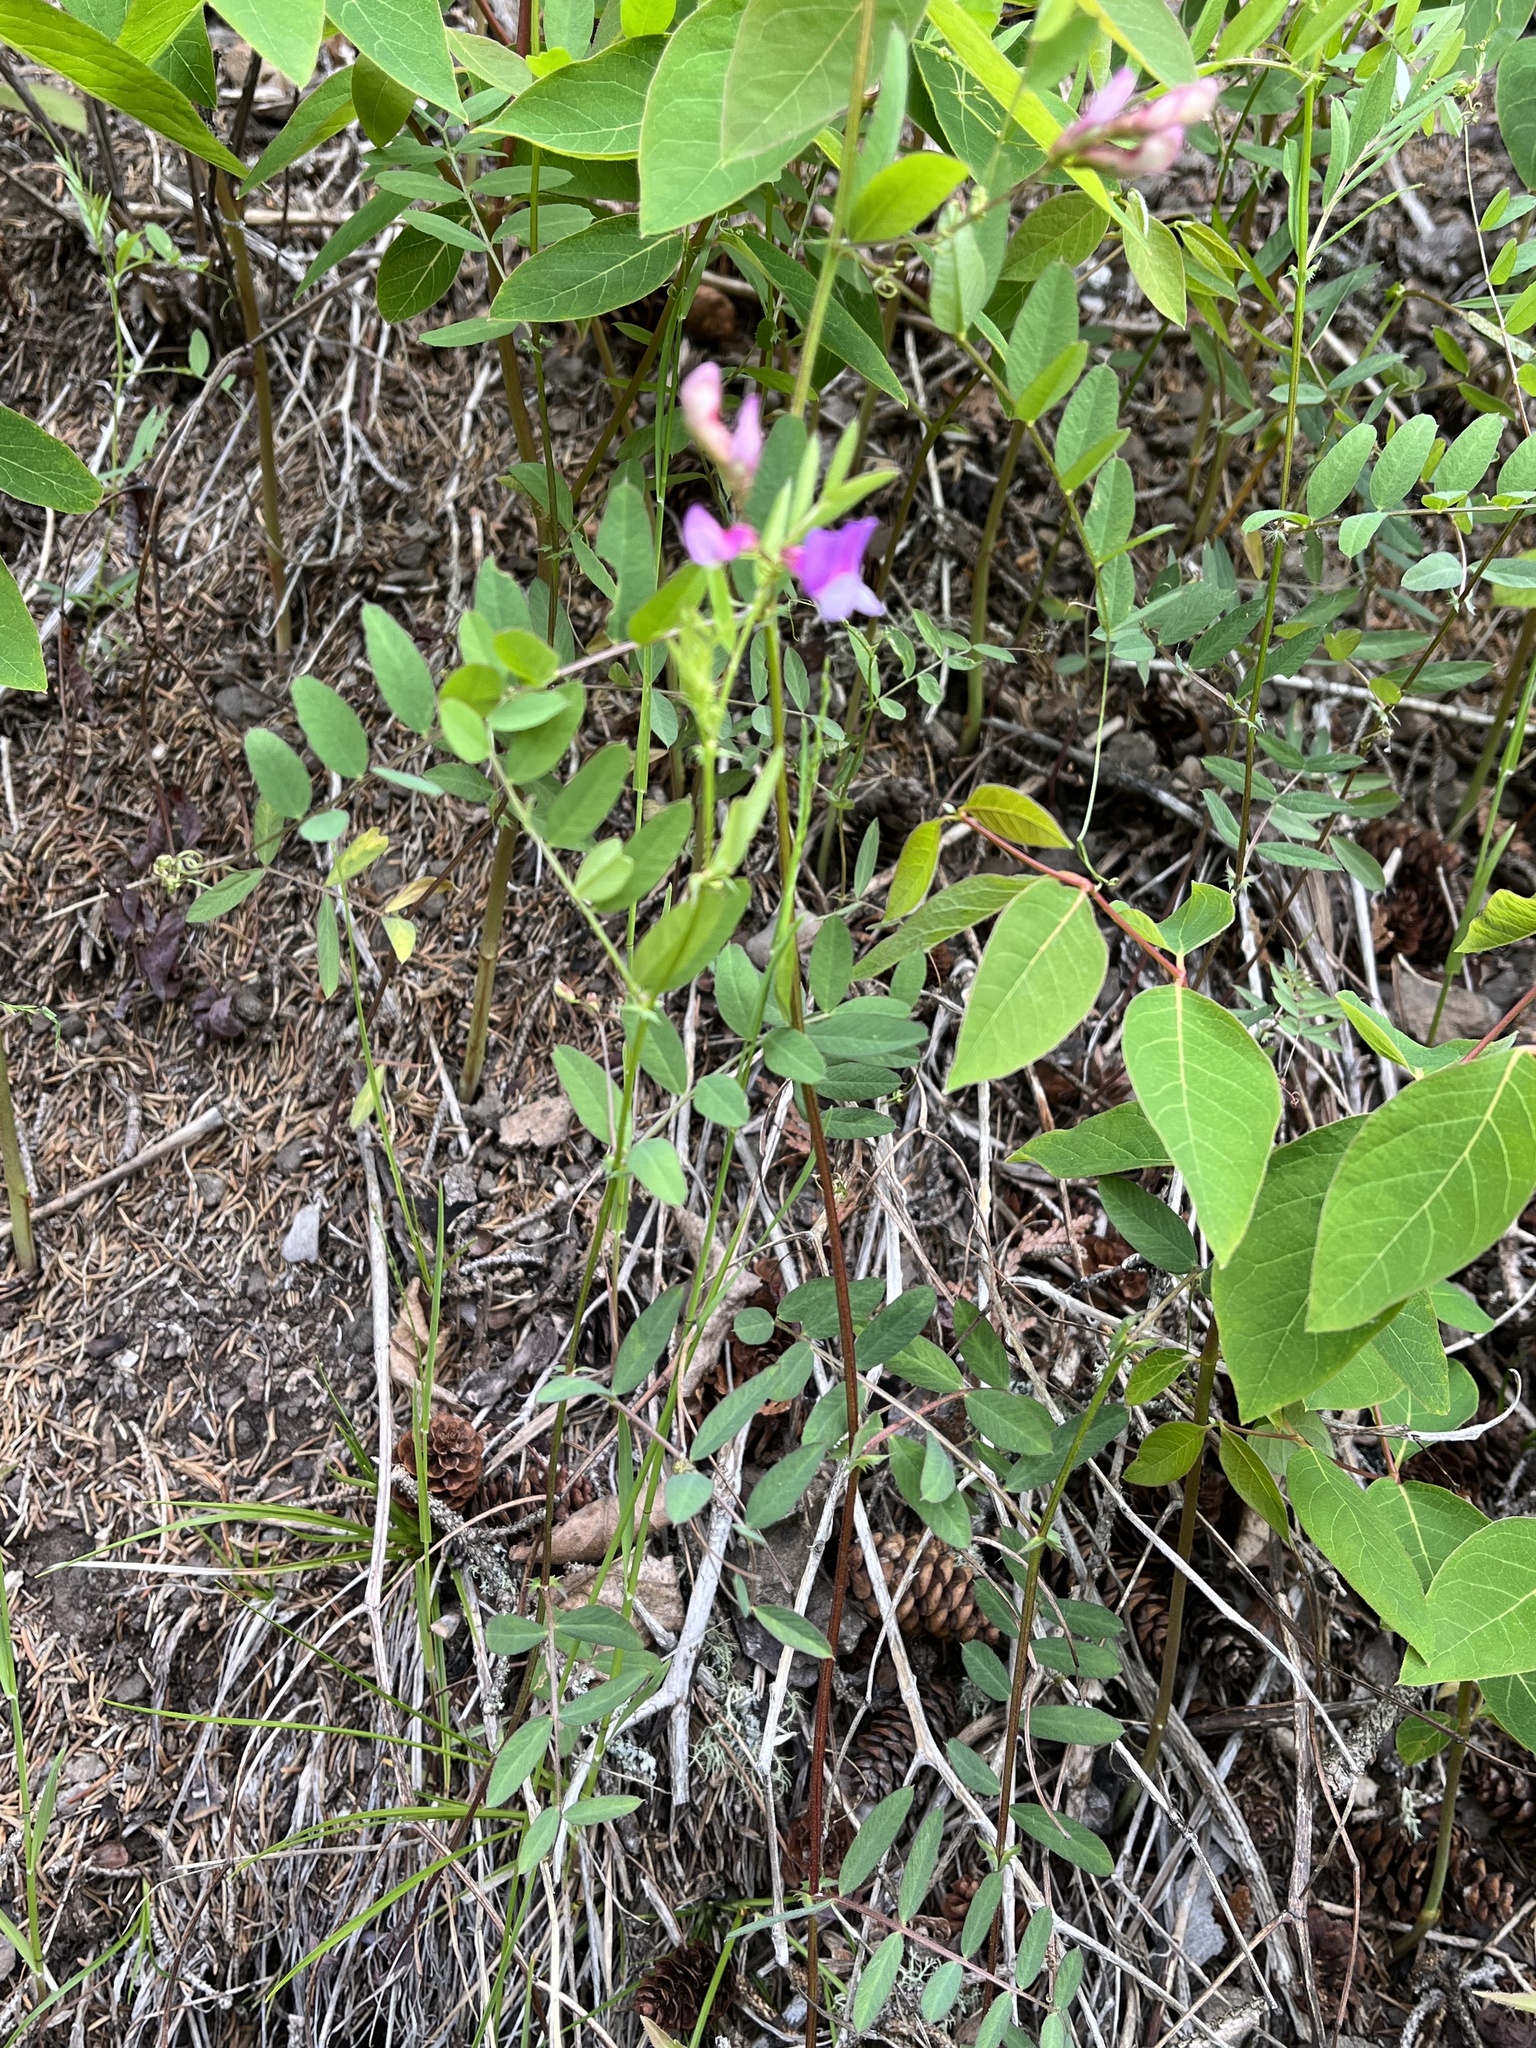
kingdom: Plantae
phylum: Tracheophyta
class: Magnoliopsida
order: Fabales
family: Fabaceae
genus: Vicia
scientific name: Vicia americana
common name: American vetch
